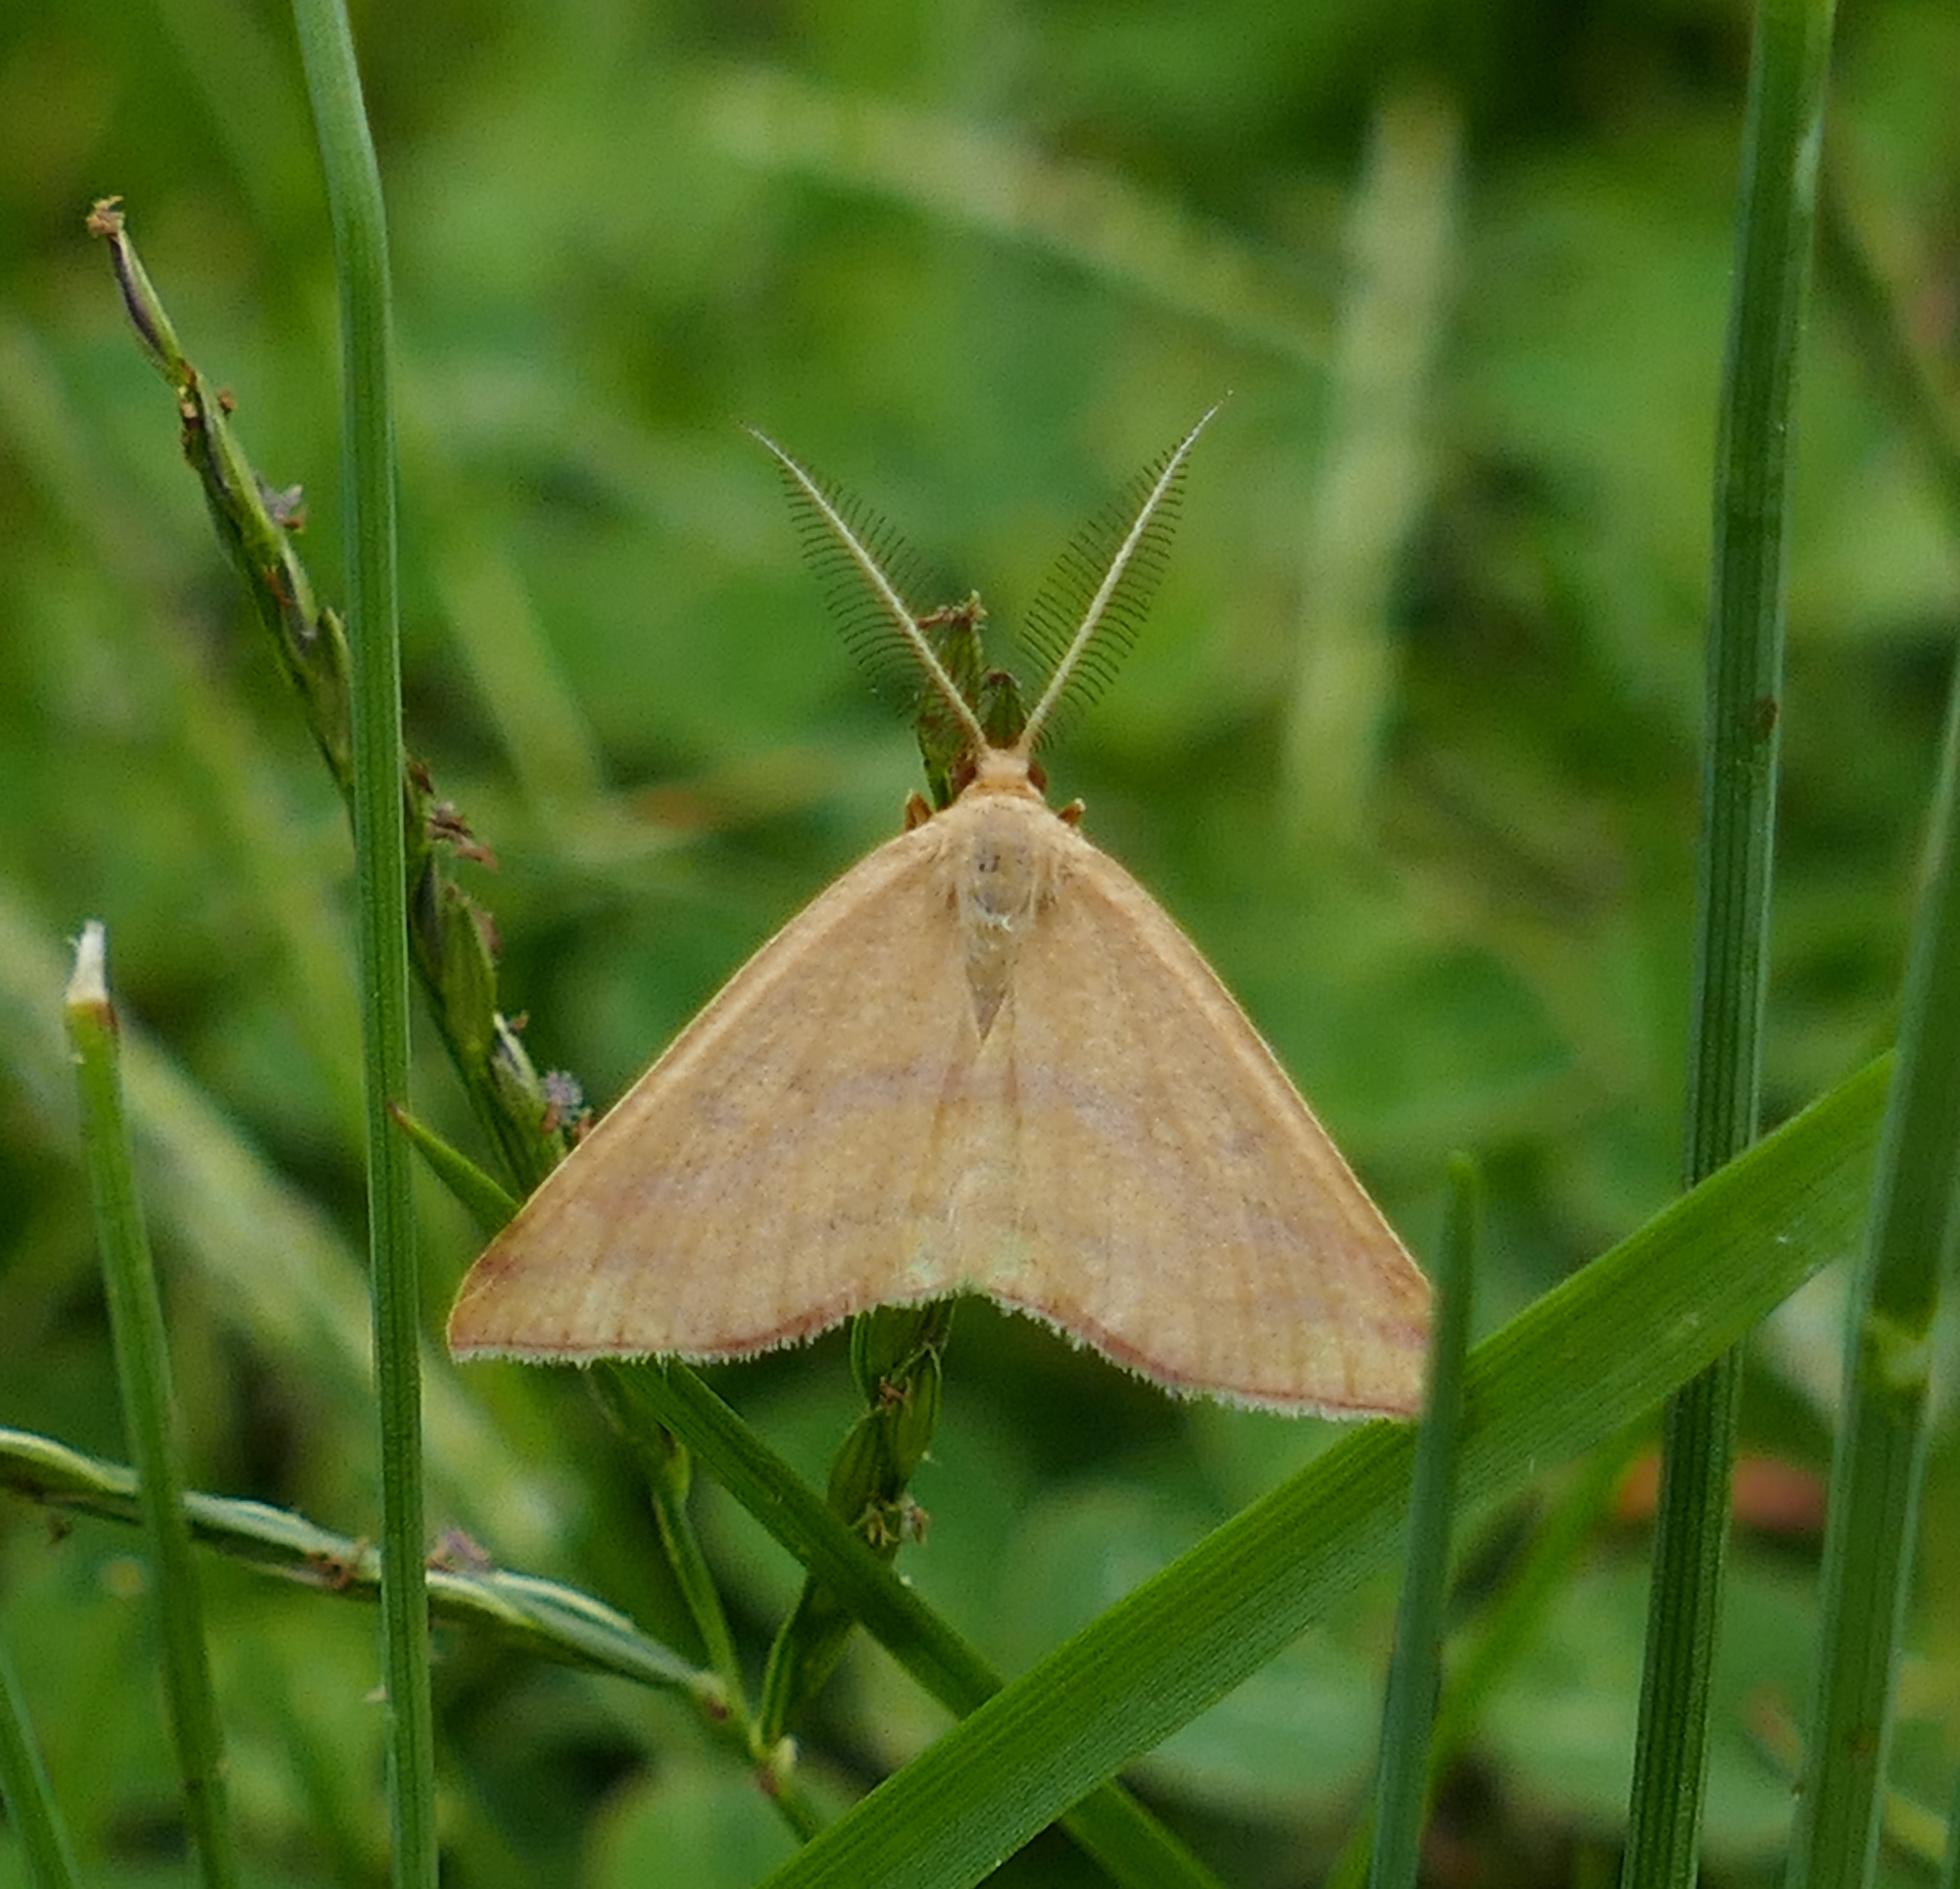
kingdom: Animalia
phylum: Arthropoda
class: Insecta
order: Lepidoptera
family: Geometridae
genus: Haematopis
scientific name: Haematopis grataria
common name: Chickweed geometer
